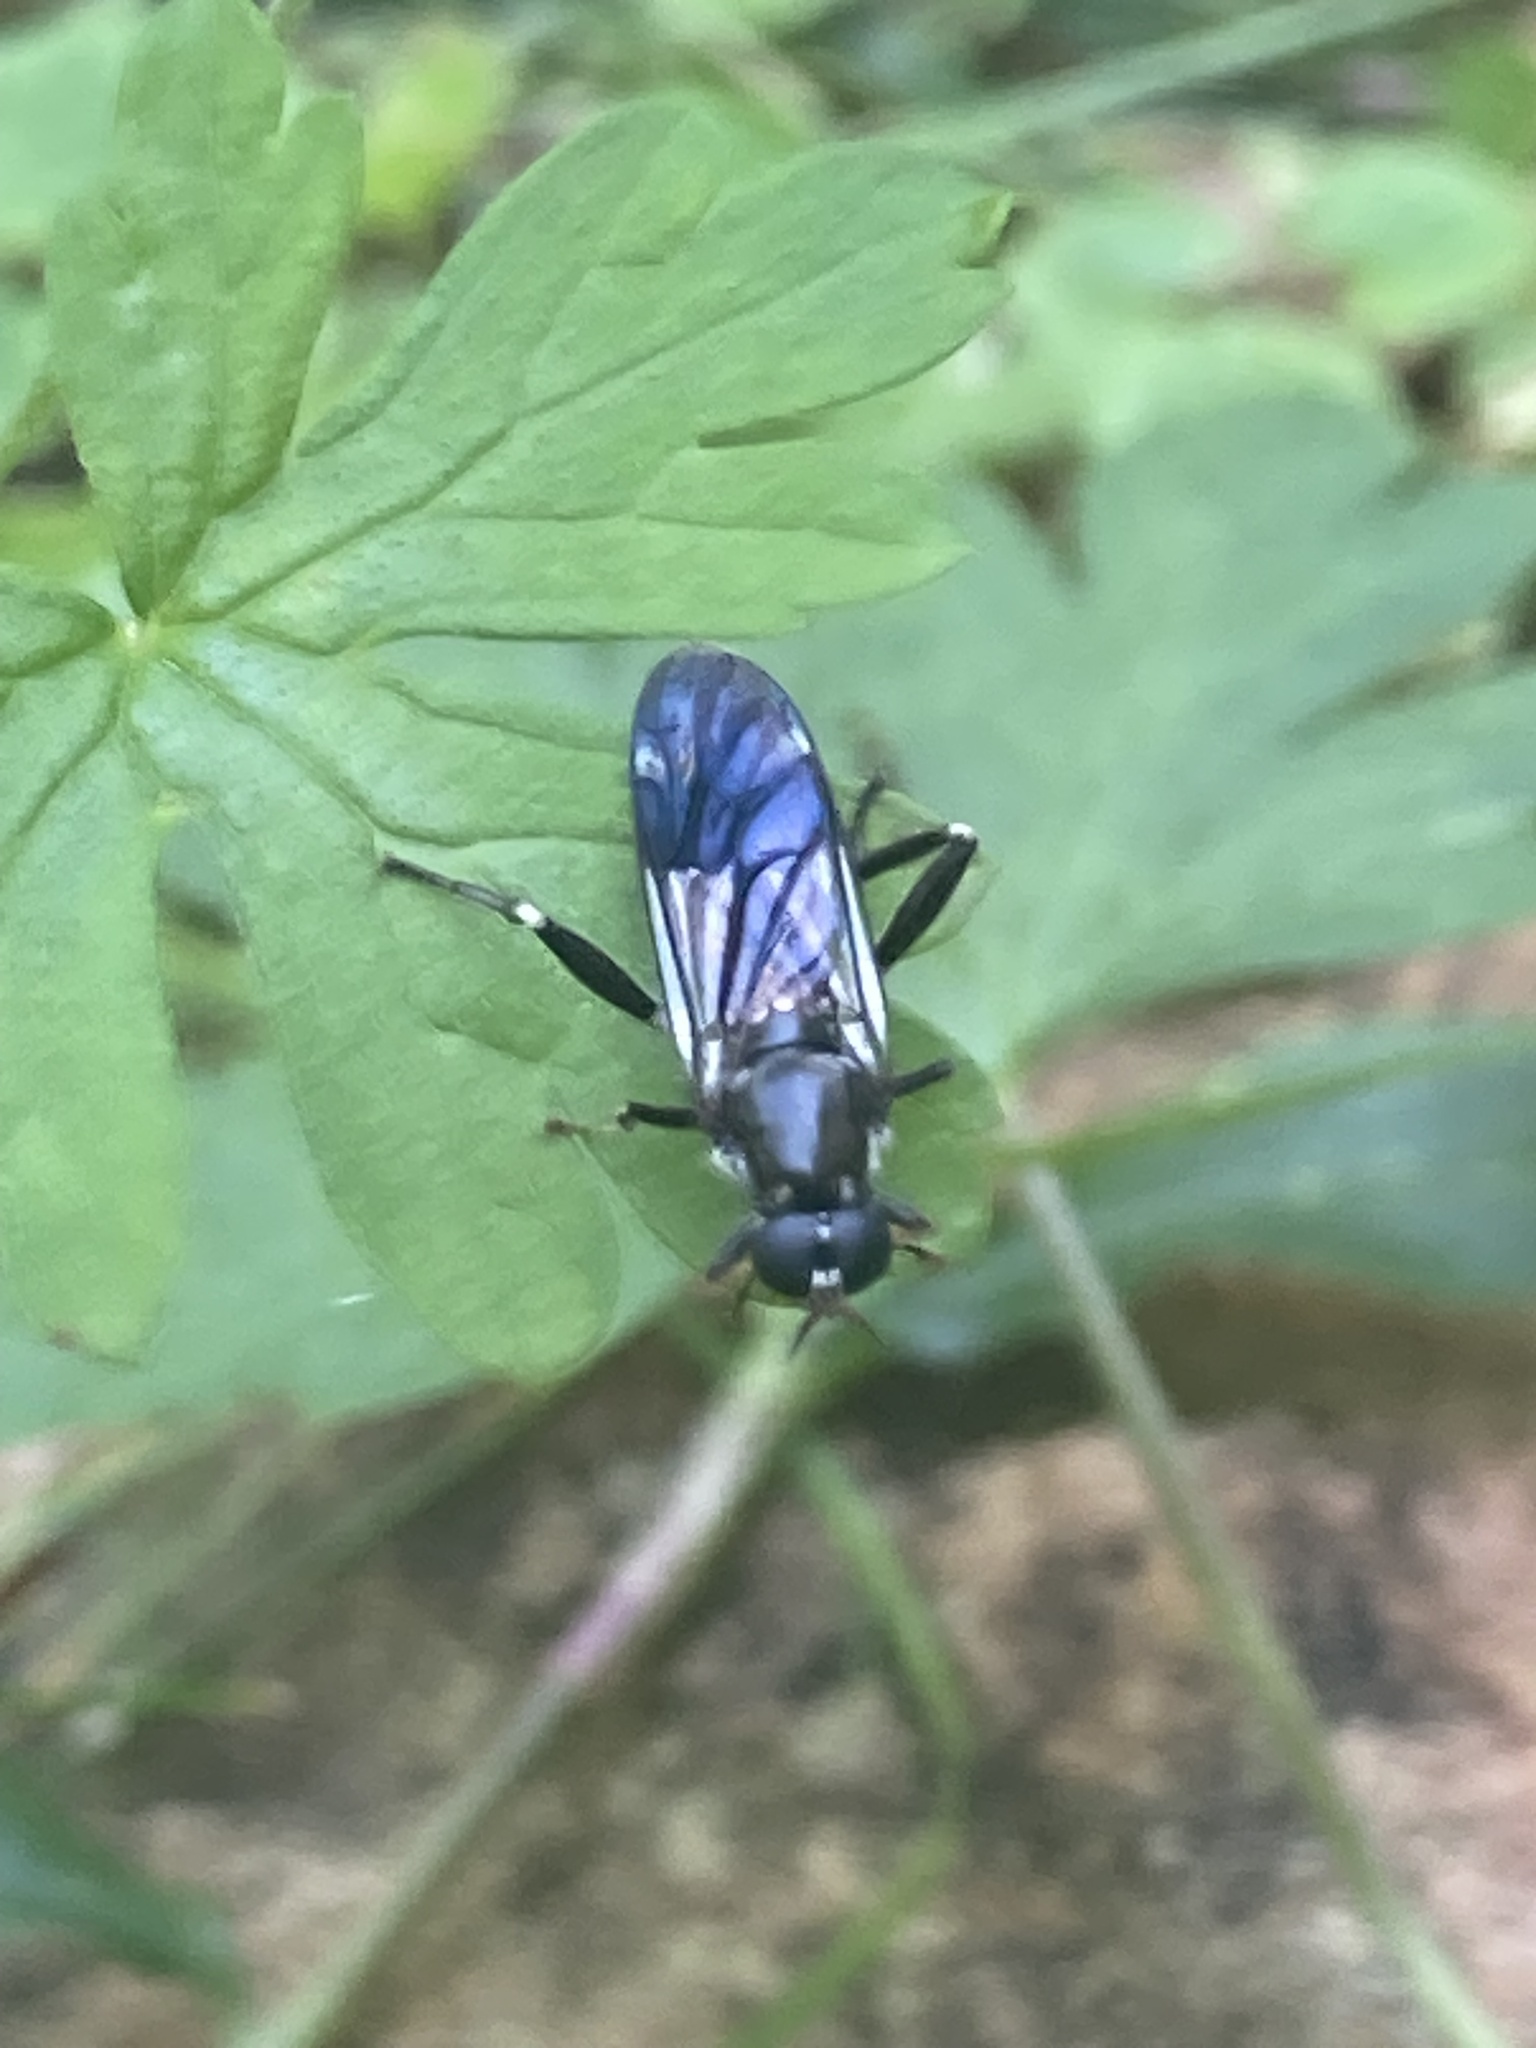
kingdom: Animalia
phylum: Arthropoda
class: Insecta
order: Diptera
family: Stratiomyidae
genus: Exaireta
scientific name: Exaireta spinigera
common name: Blue soldier fly
